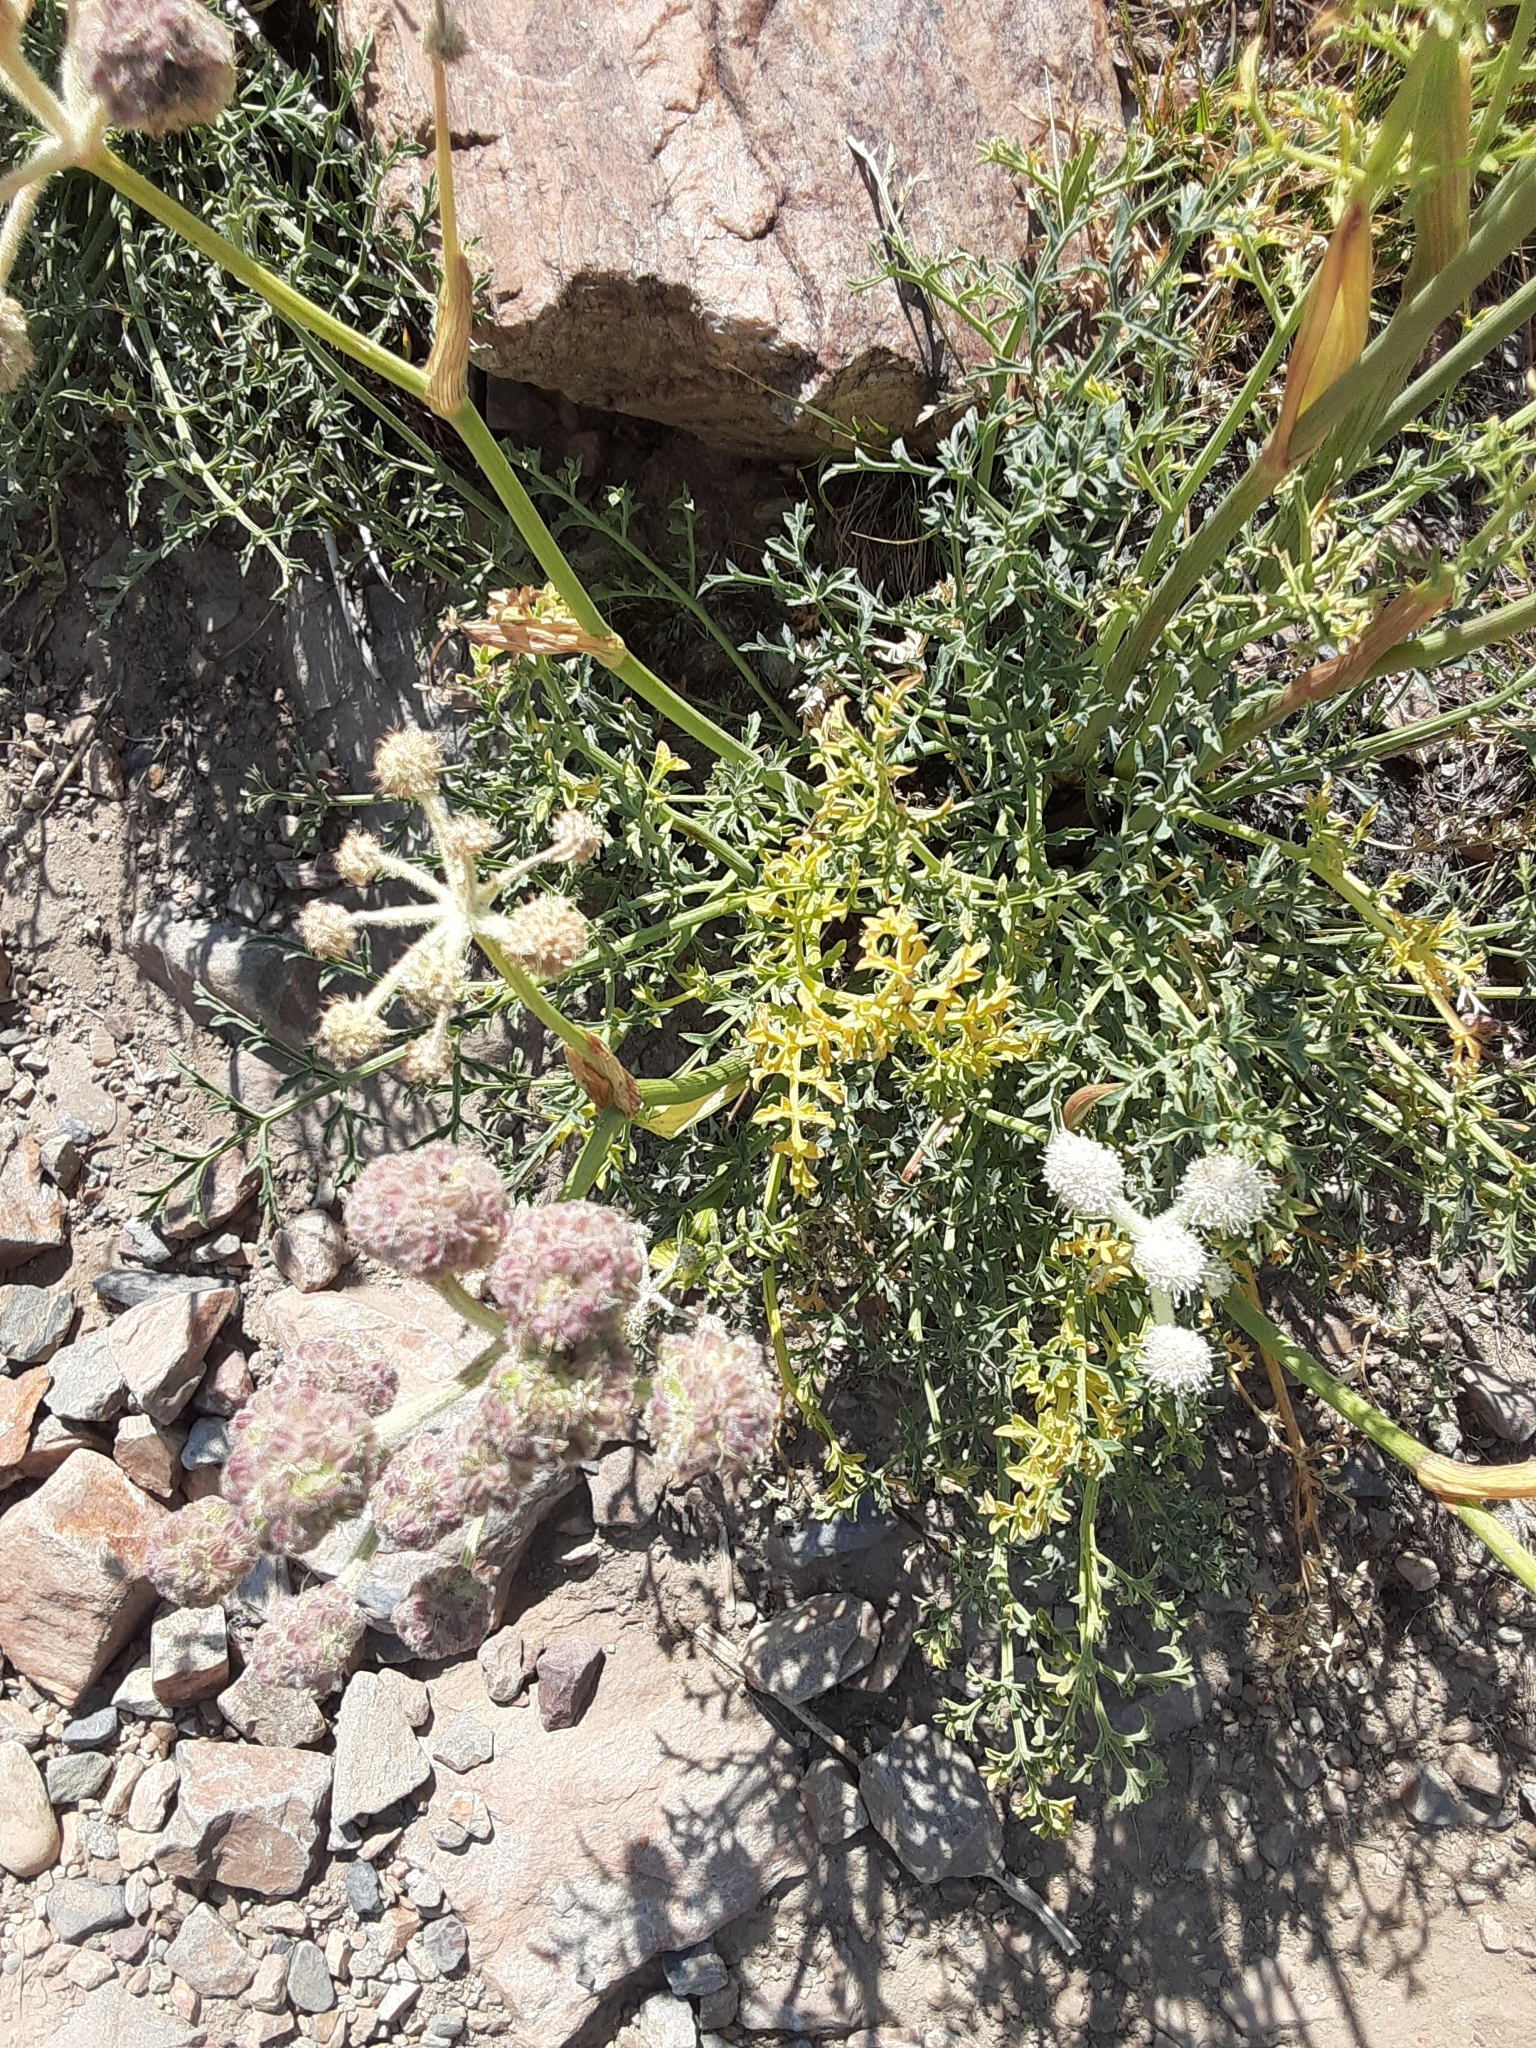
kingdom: Plantae
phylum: Tracheophyta
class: Magnoliopsida
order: Apiales
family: Apiaceae
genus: Angelica
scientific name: Angelica capitellata
